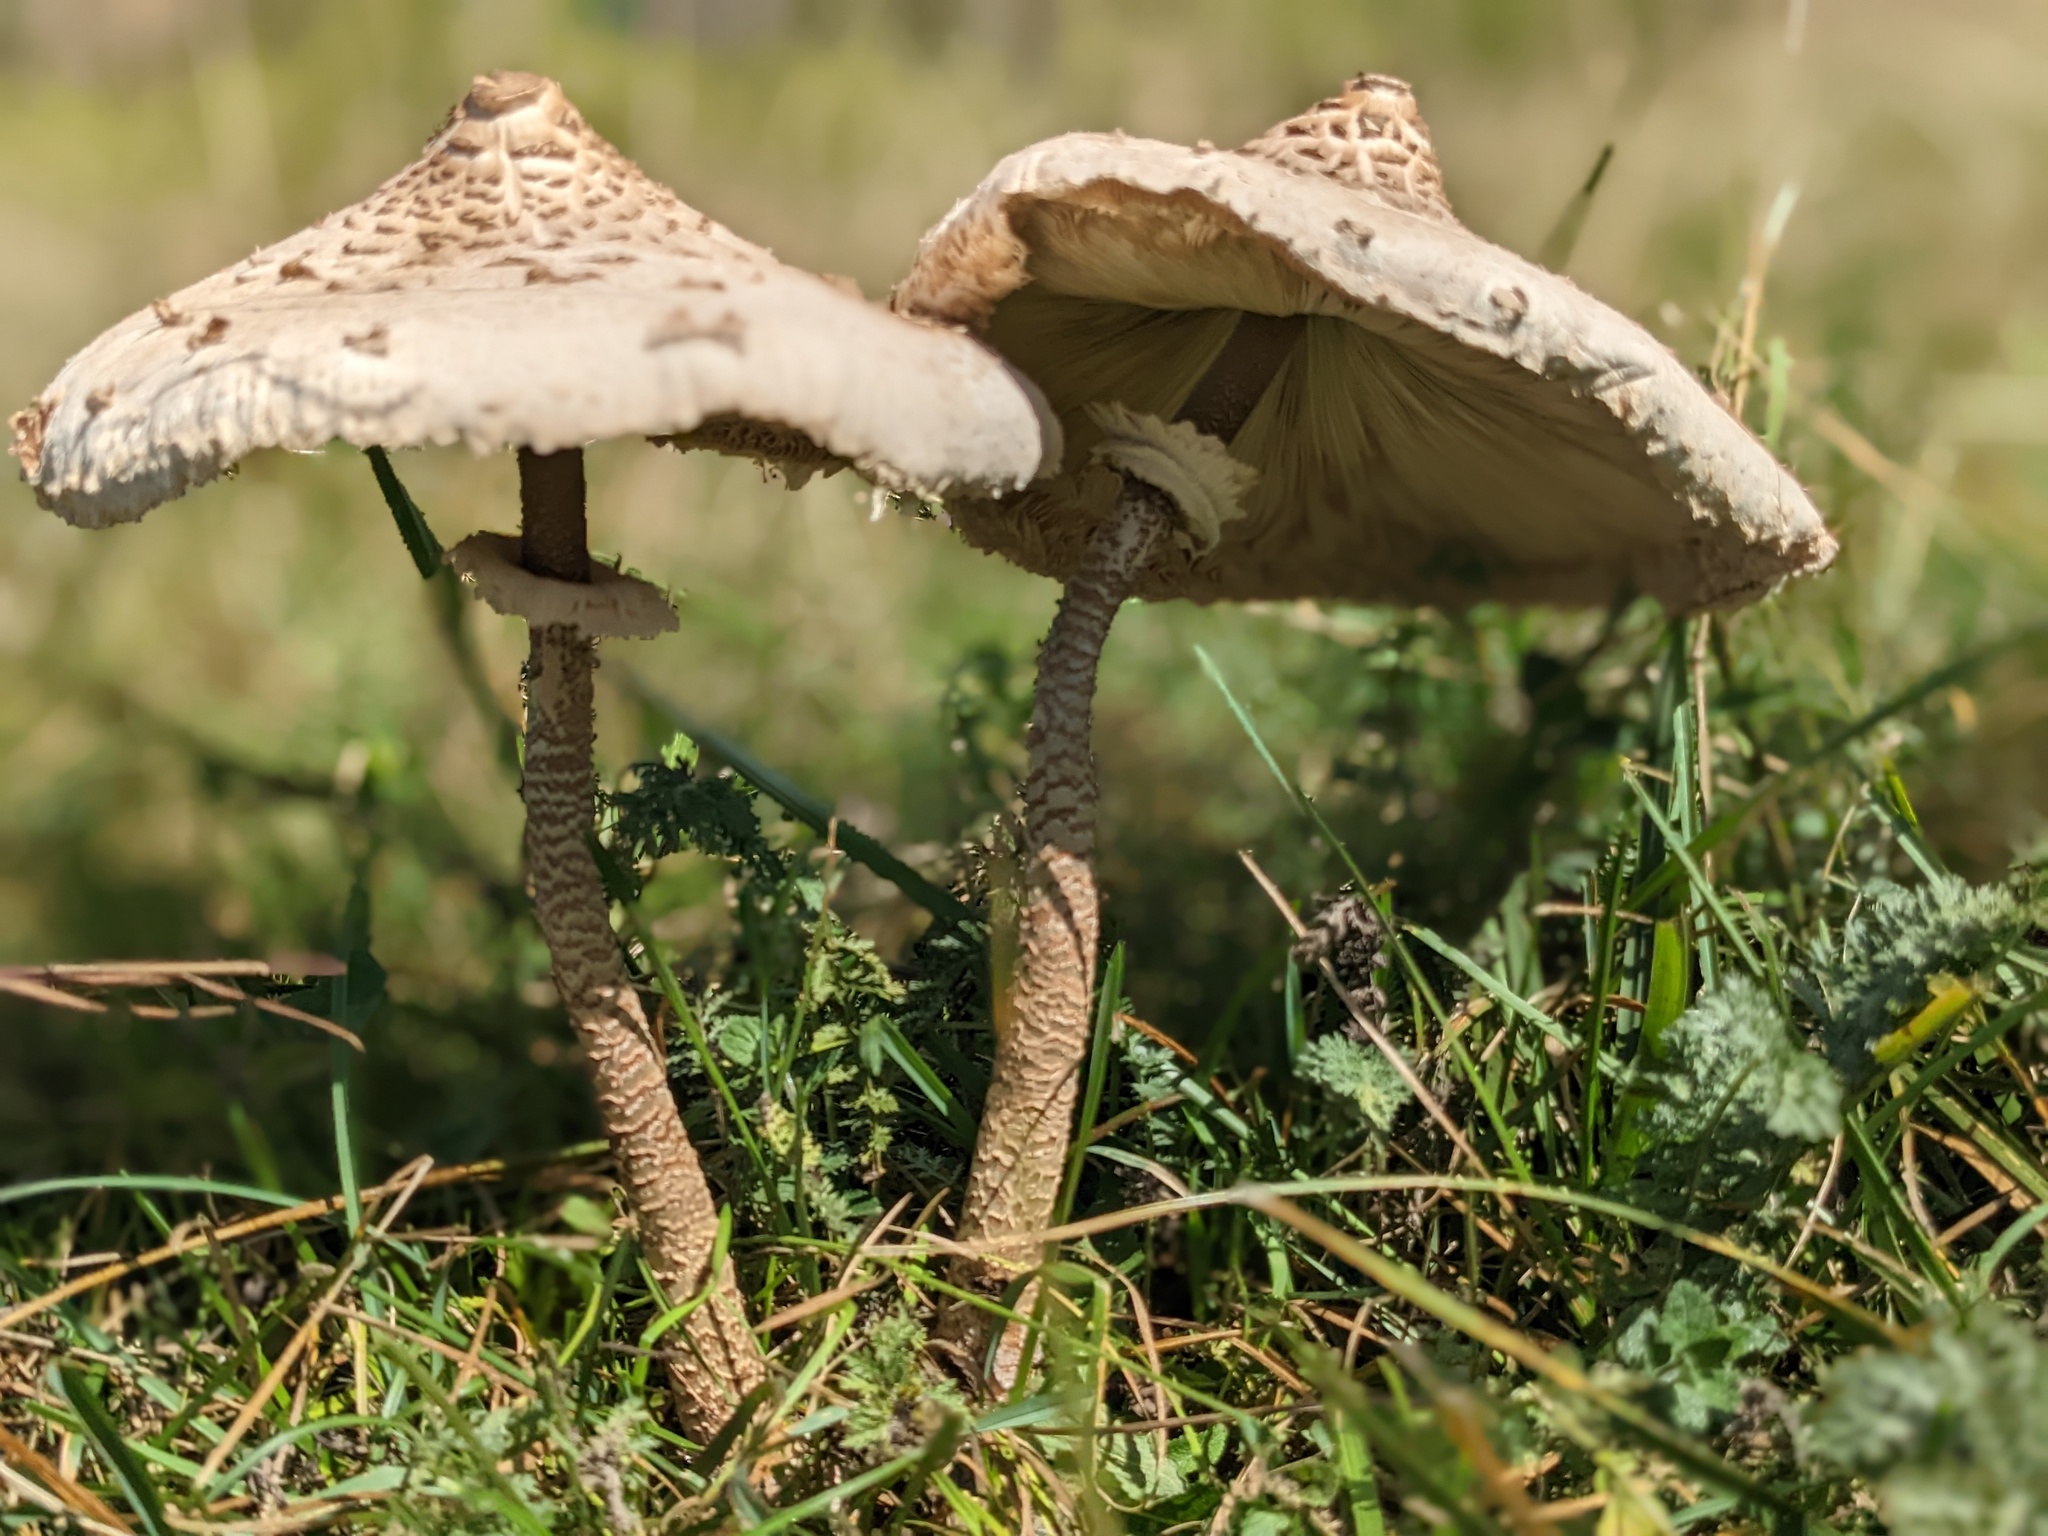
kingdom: Fungi
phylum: Basidiomycota
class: Agaricomycetes
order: Agaricales
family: Agaricaceae
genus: Macrolepiota
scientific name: Macrolepiota procera
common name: Parasol
